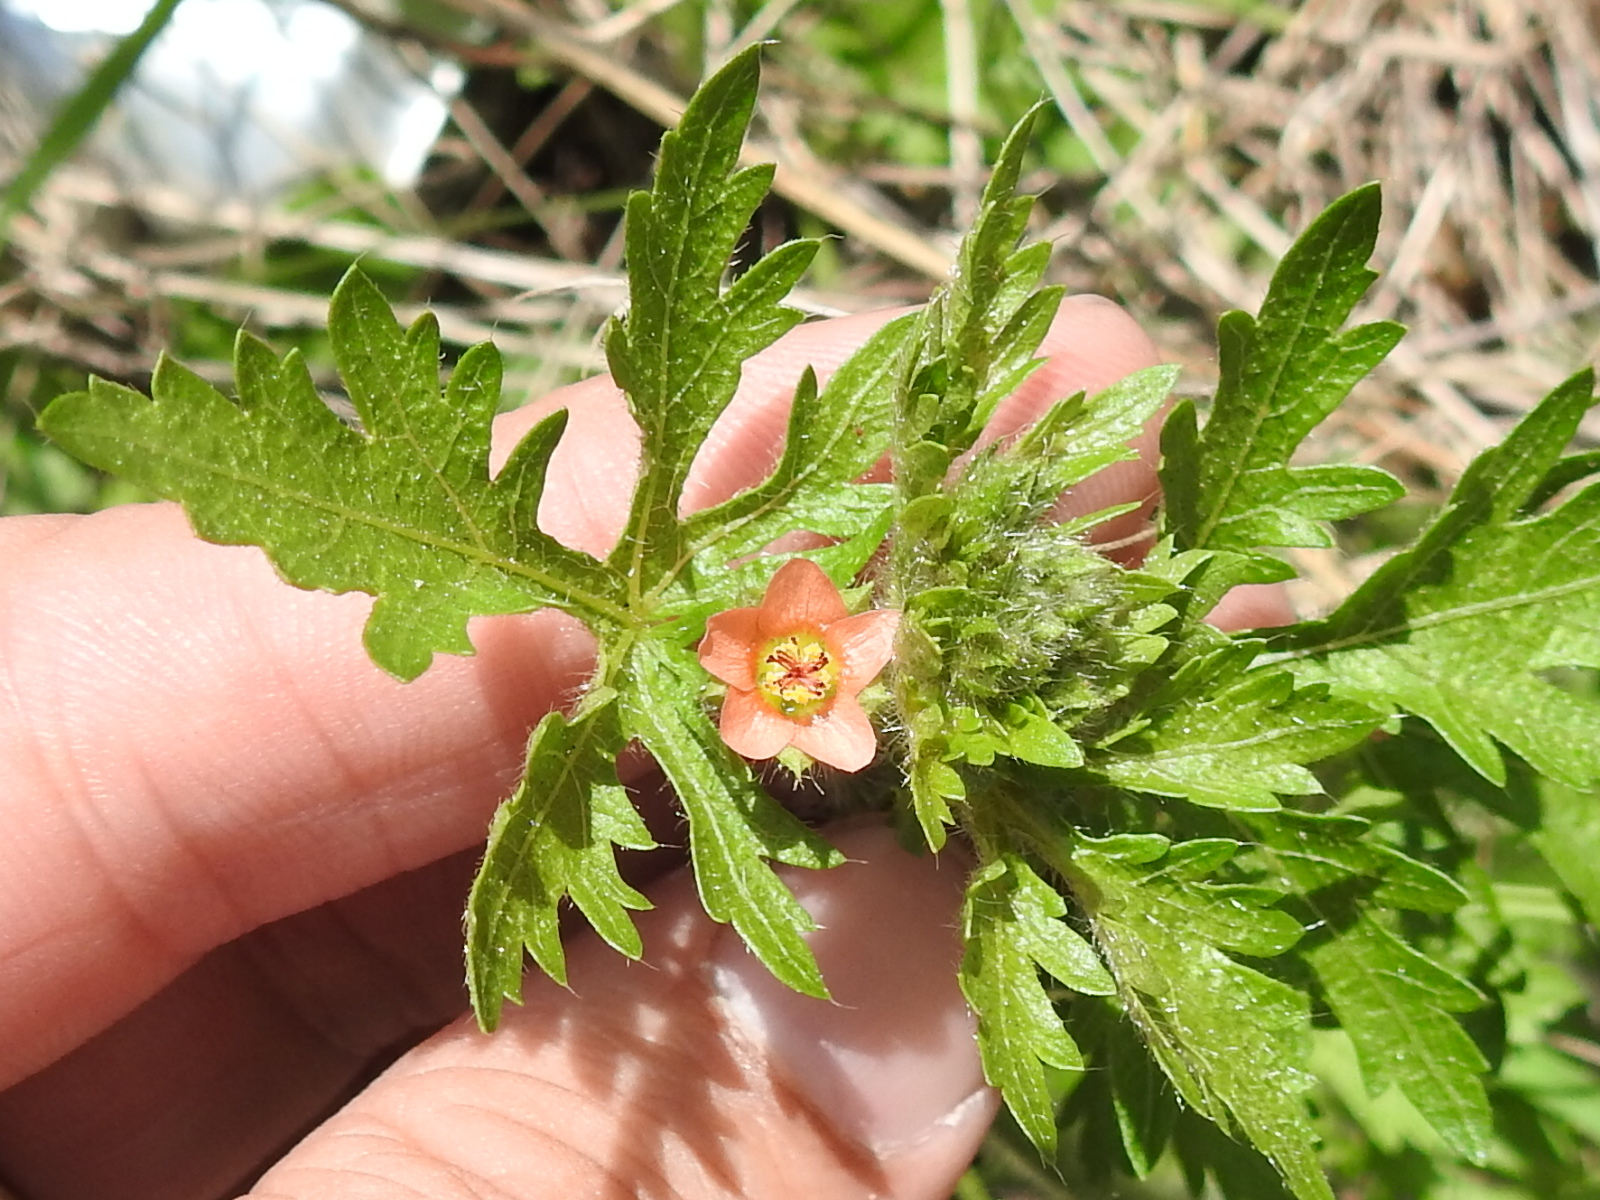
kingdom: Plantae
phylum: Tracheophyta
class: Magnoliopsida
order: Malvales
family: Malvaceae
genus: Modiola
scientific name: Modiola caroliniana
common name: Carolina bristlemallow
